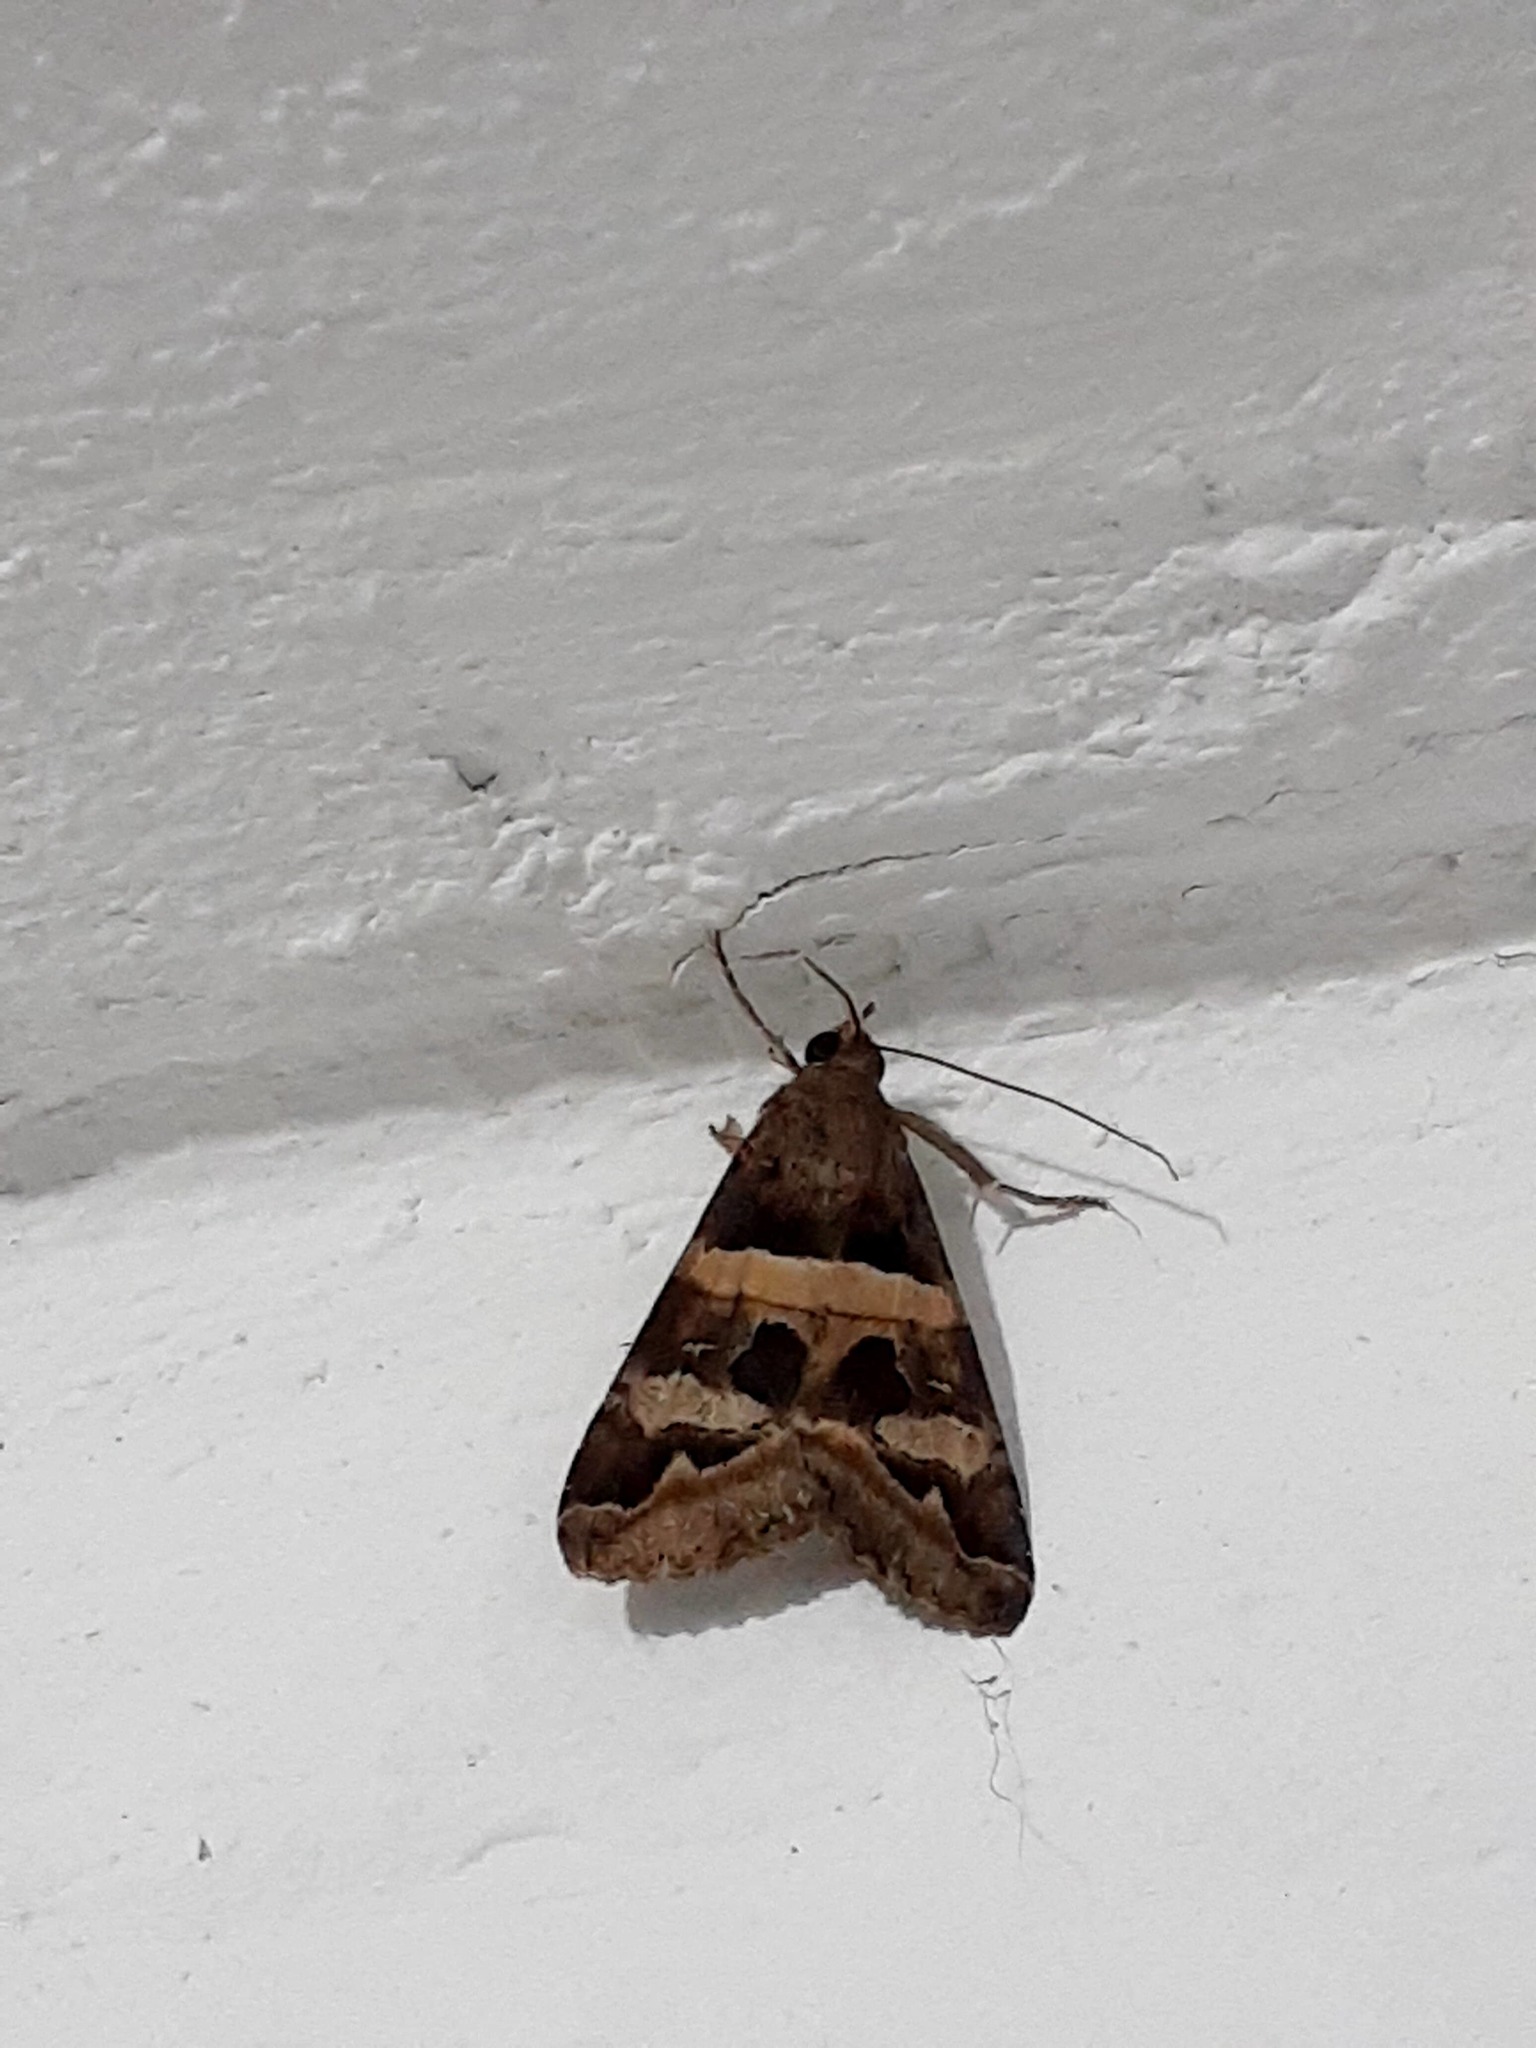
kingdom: Animalia
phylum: Arthropoda
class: Insecta
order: Lepidoptera
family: Erebidae
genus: Melipotis
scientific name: Melipotis trujillensis
